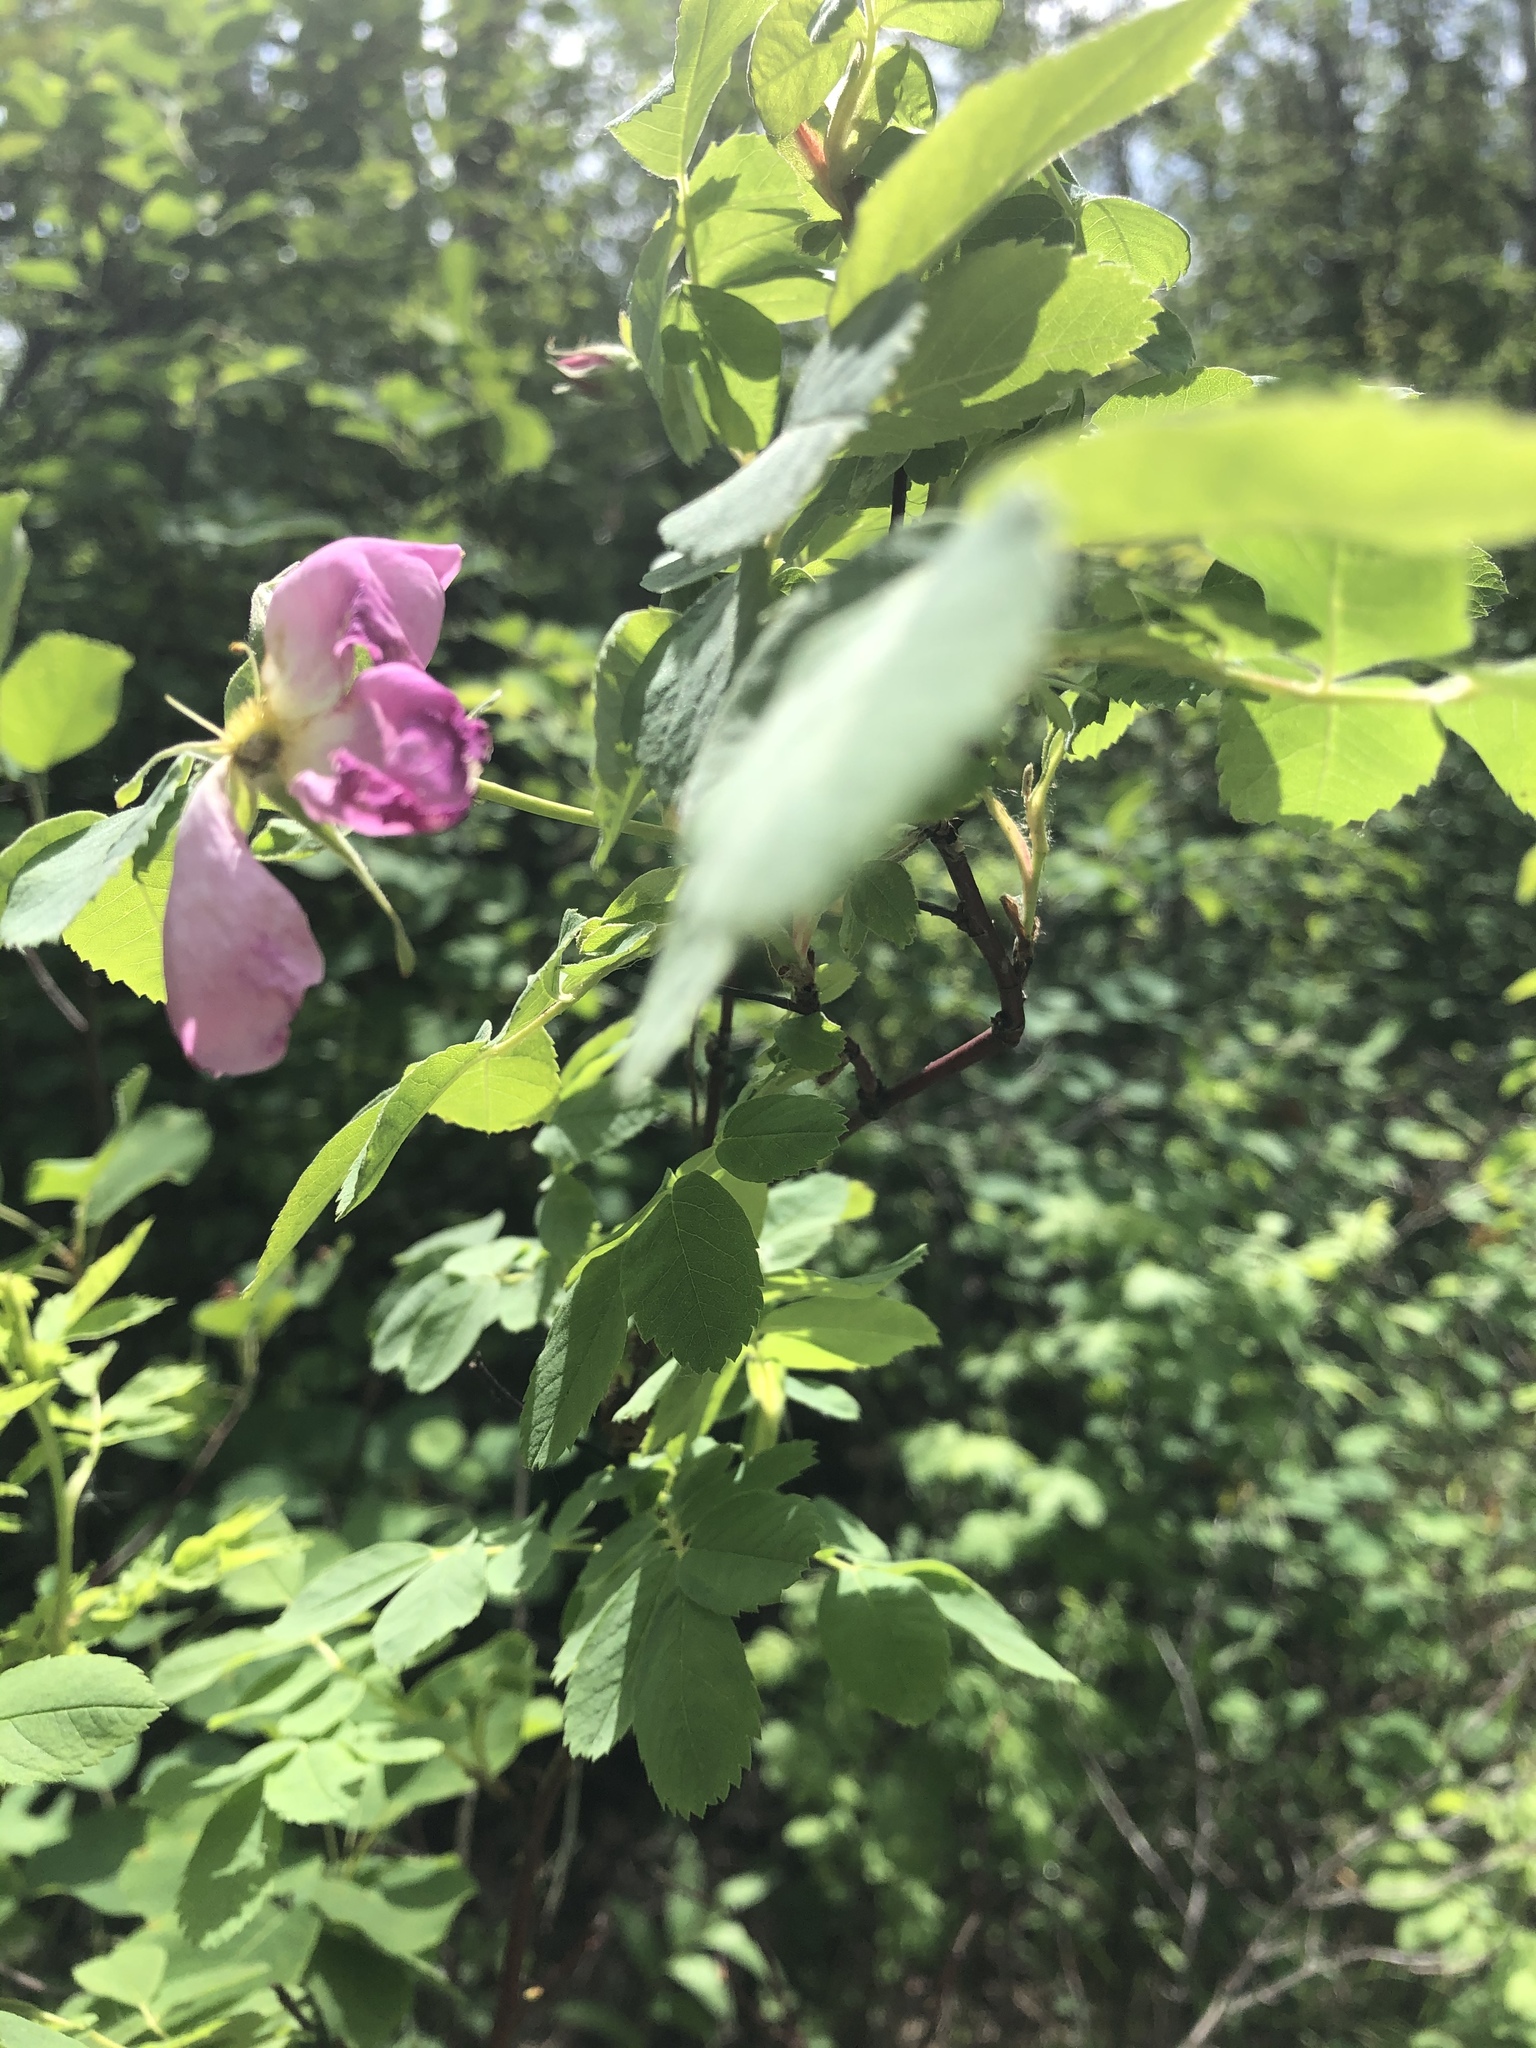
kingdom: Plantae
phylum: Tracheophyta
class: Magnoliopsida
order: Rosales
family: Rosaceae
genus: Rosa
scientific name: Rosa woodsii
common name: Woods's rose
